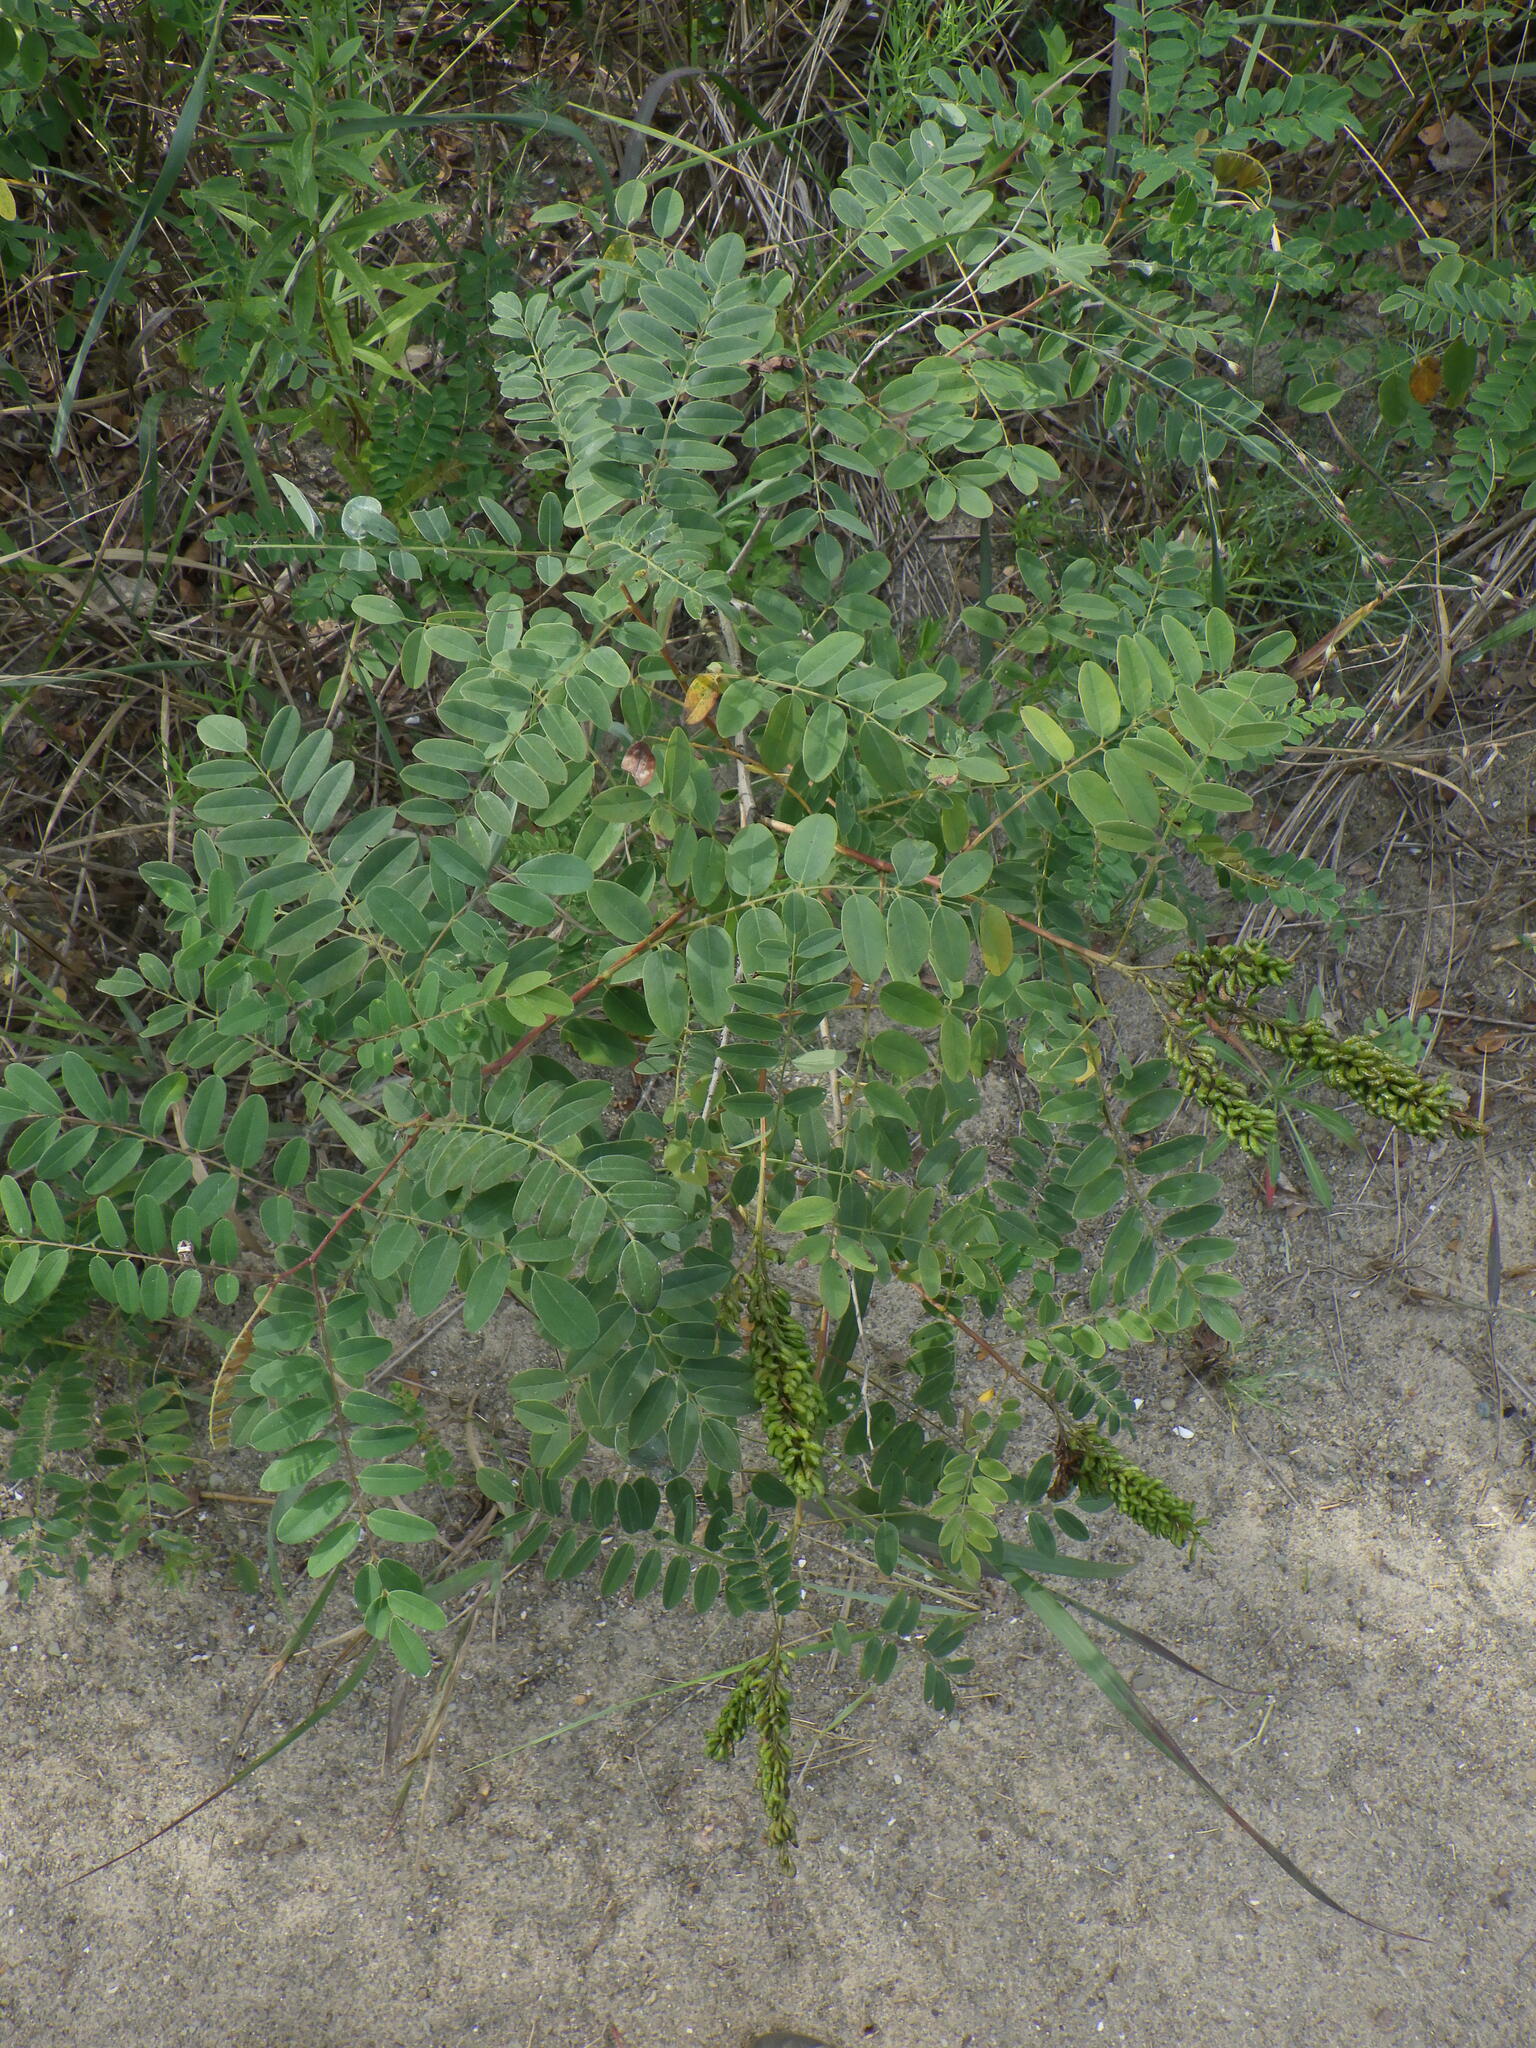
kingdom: Plantae
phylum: Tracheophyta
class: Magnoliopsida
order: Fabales
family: Fabaceae
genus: Amorpha
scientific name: Amorpha fruticosa
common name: False indigo
